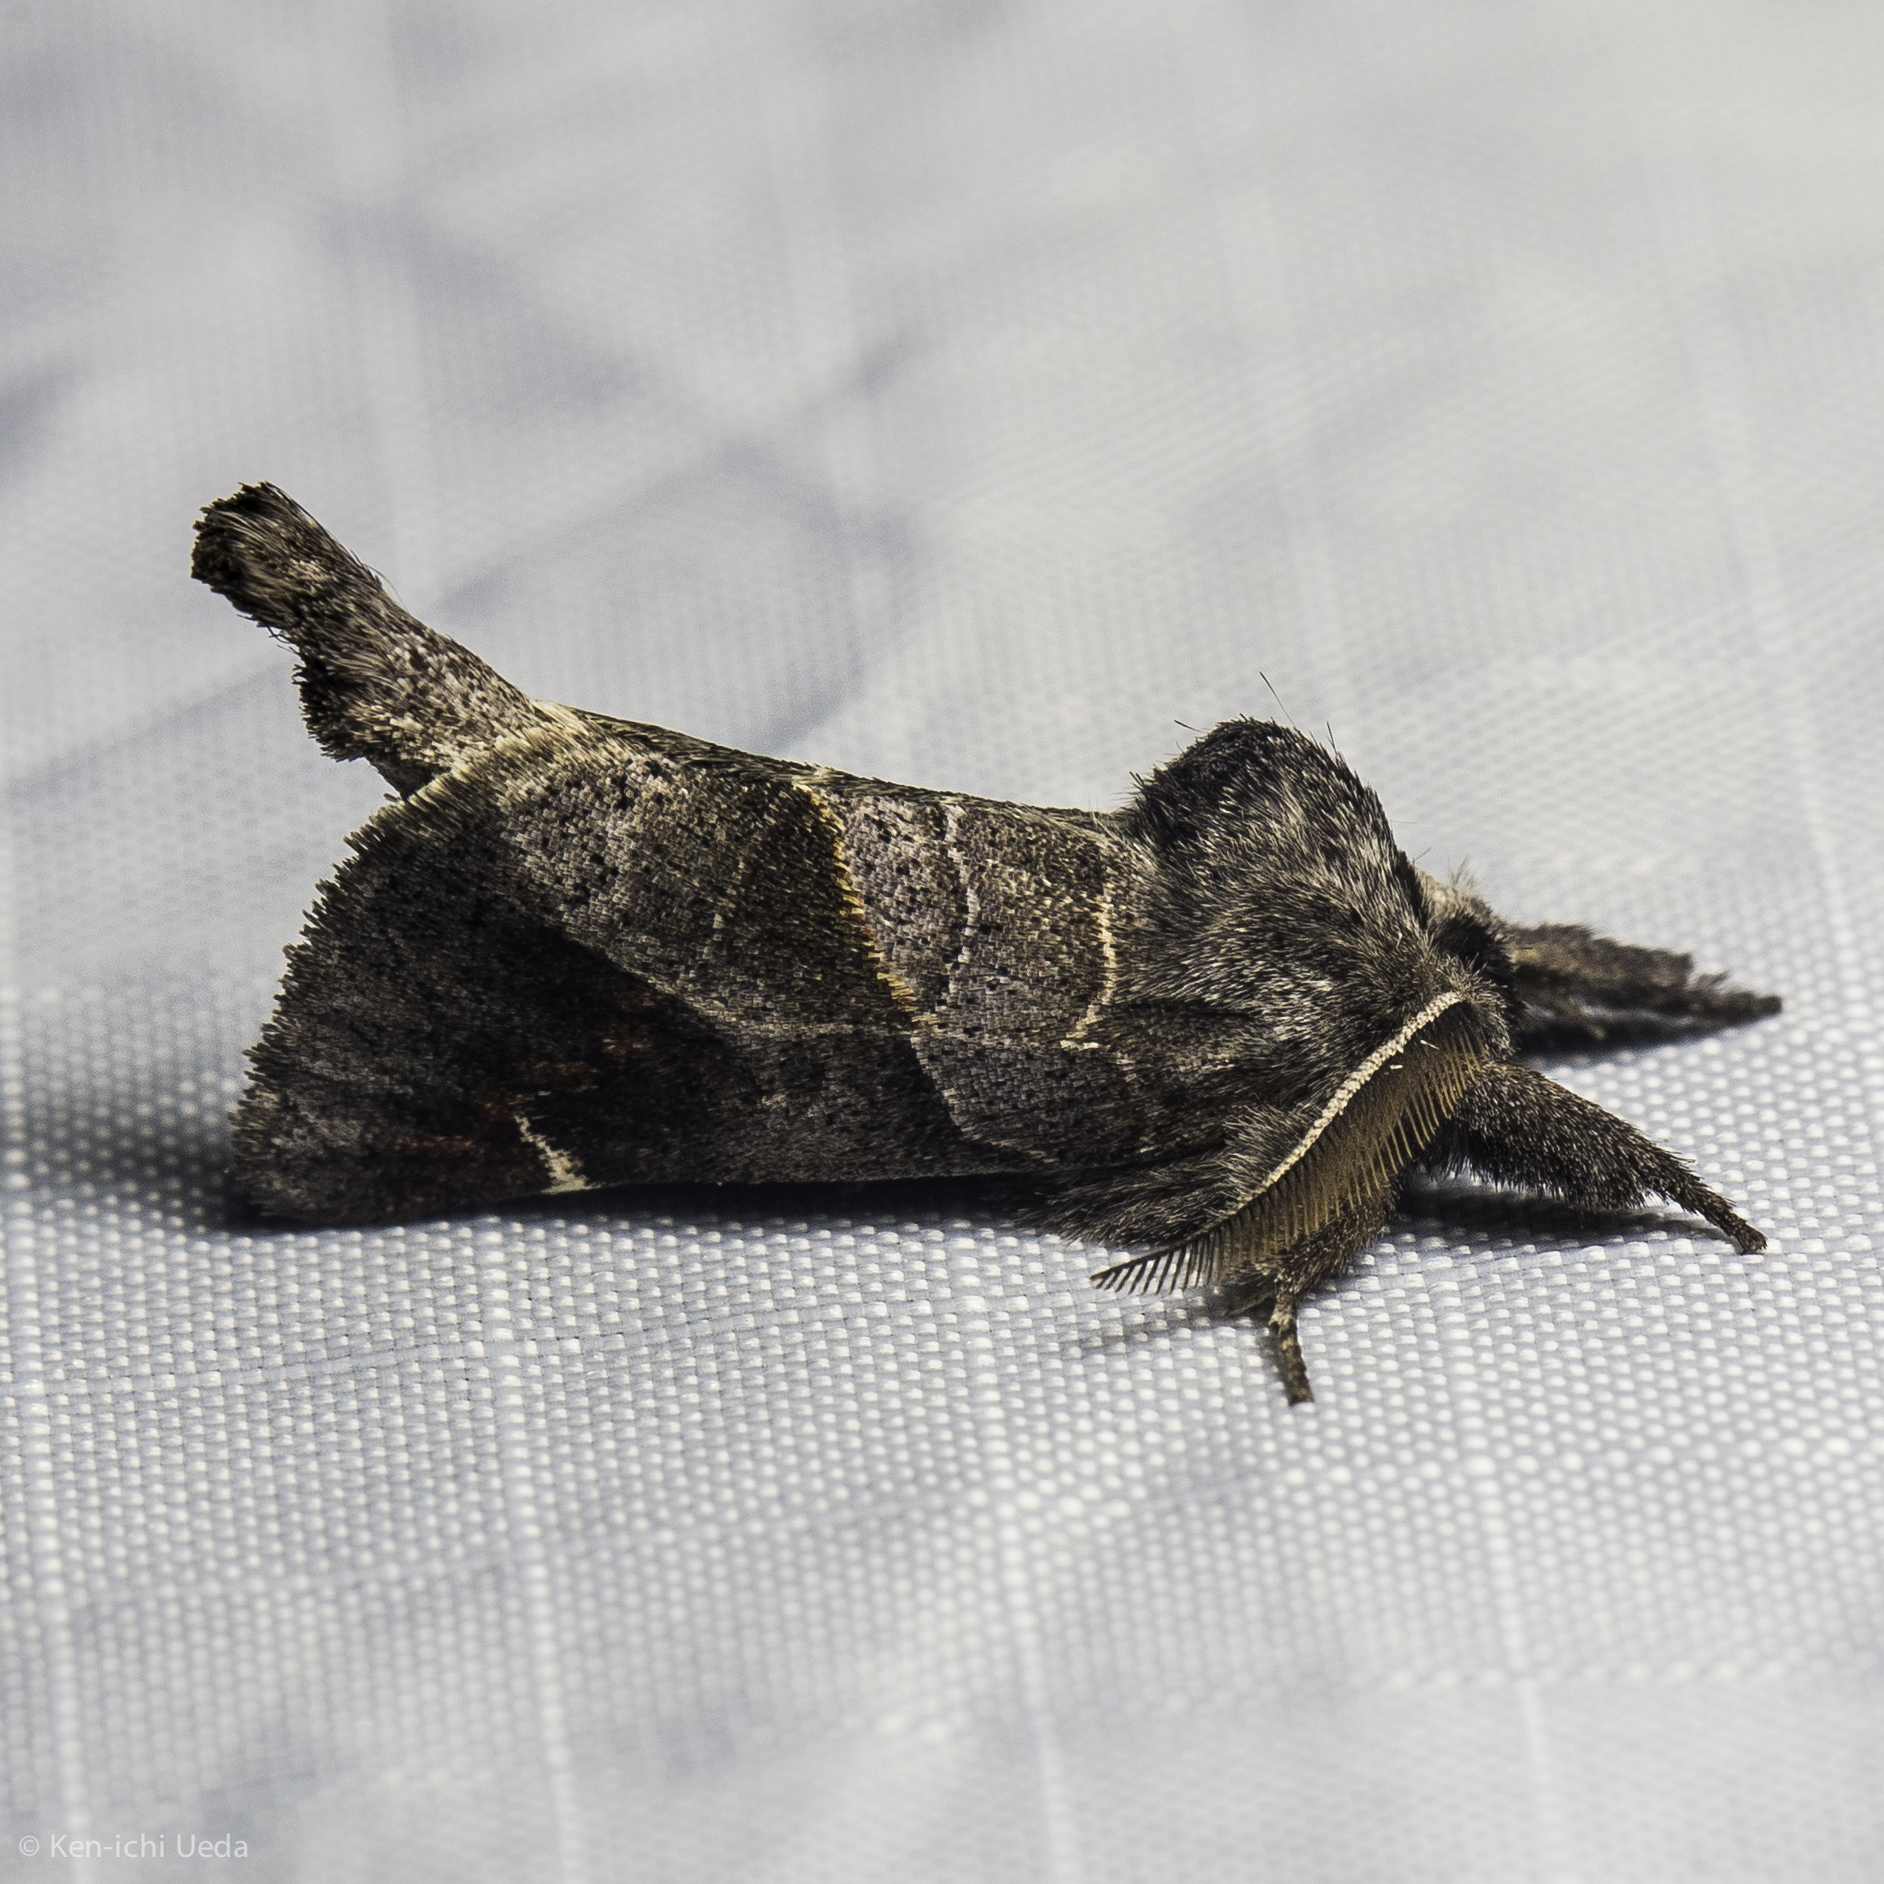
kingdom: Animalia
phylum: Arthropoda
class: Insecta
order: Lepidoptera
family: Notodontidae
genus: Clostera
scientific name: Clostera apicalis
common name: Apical prominent
